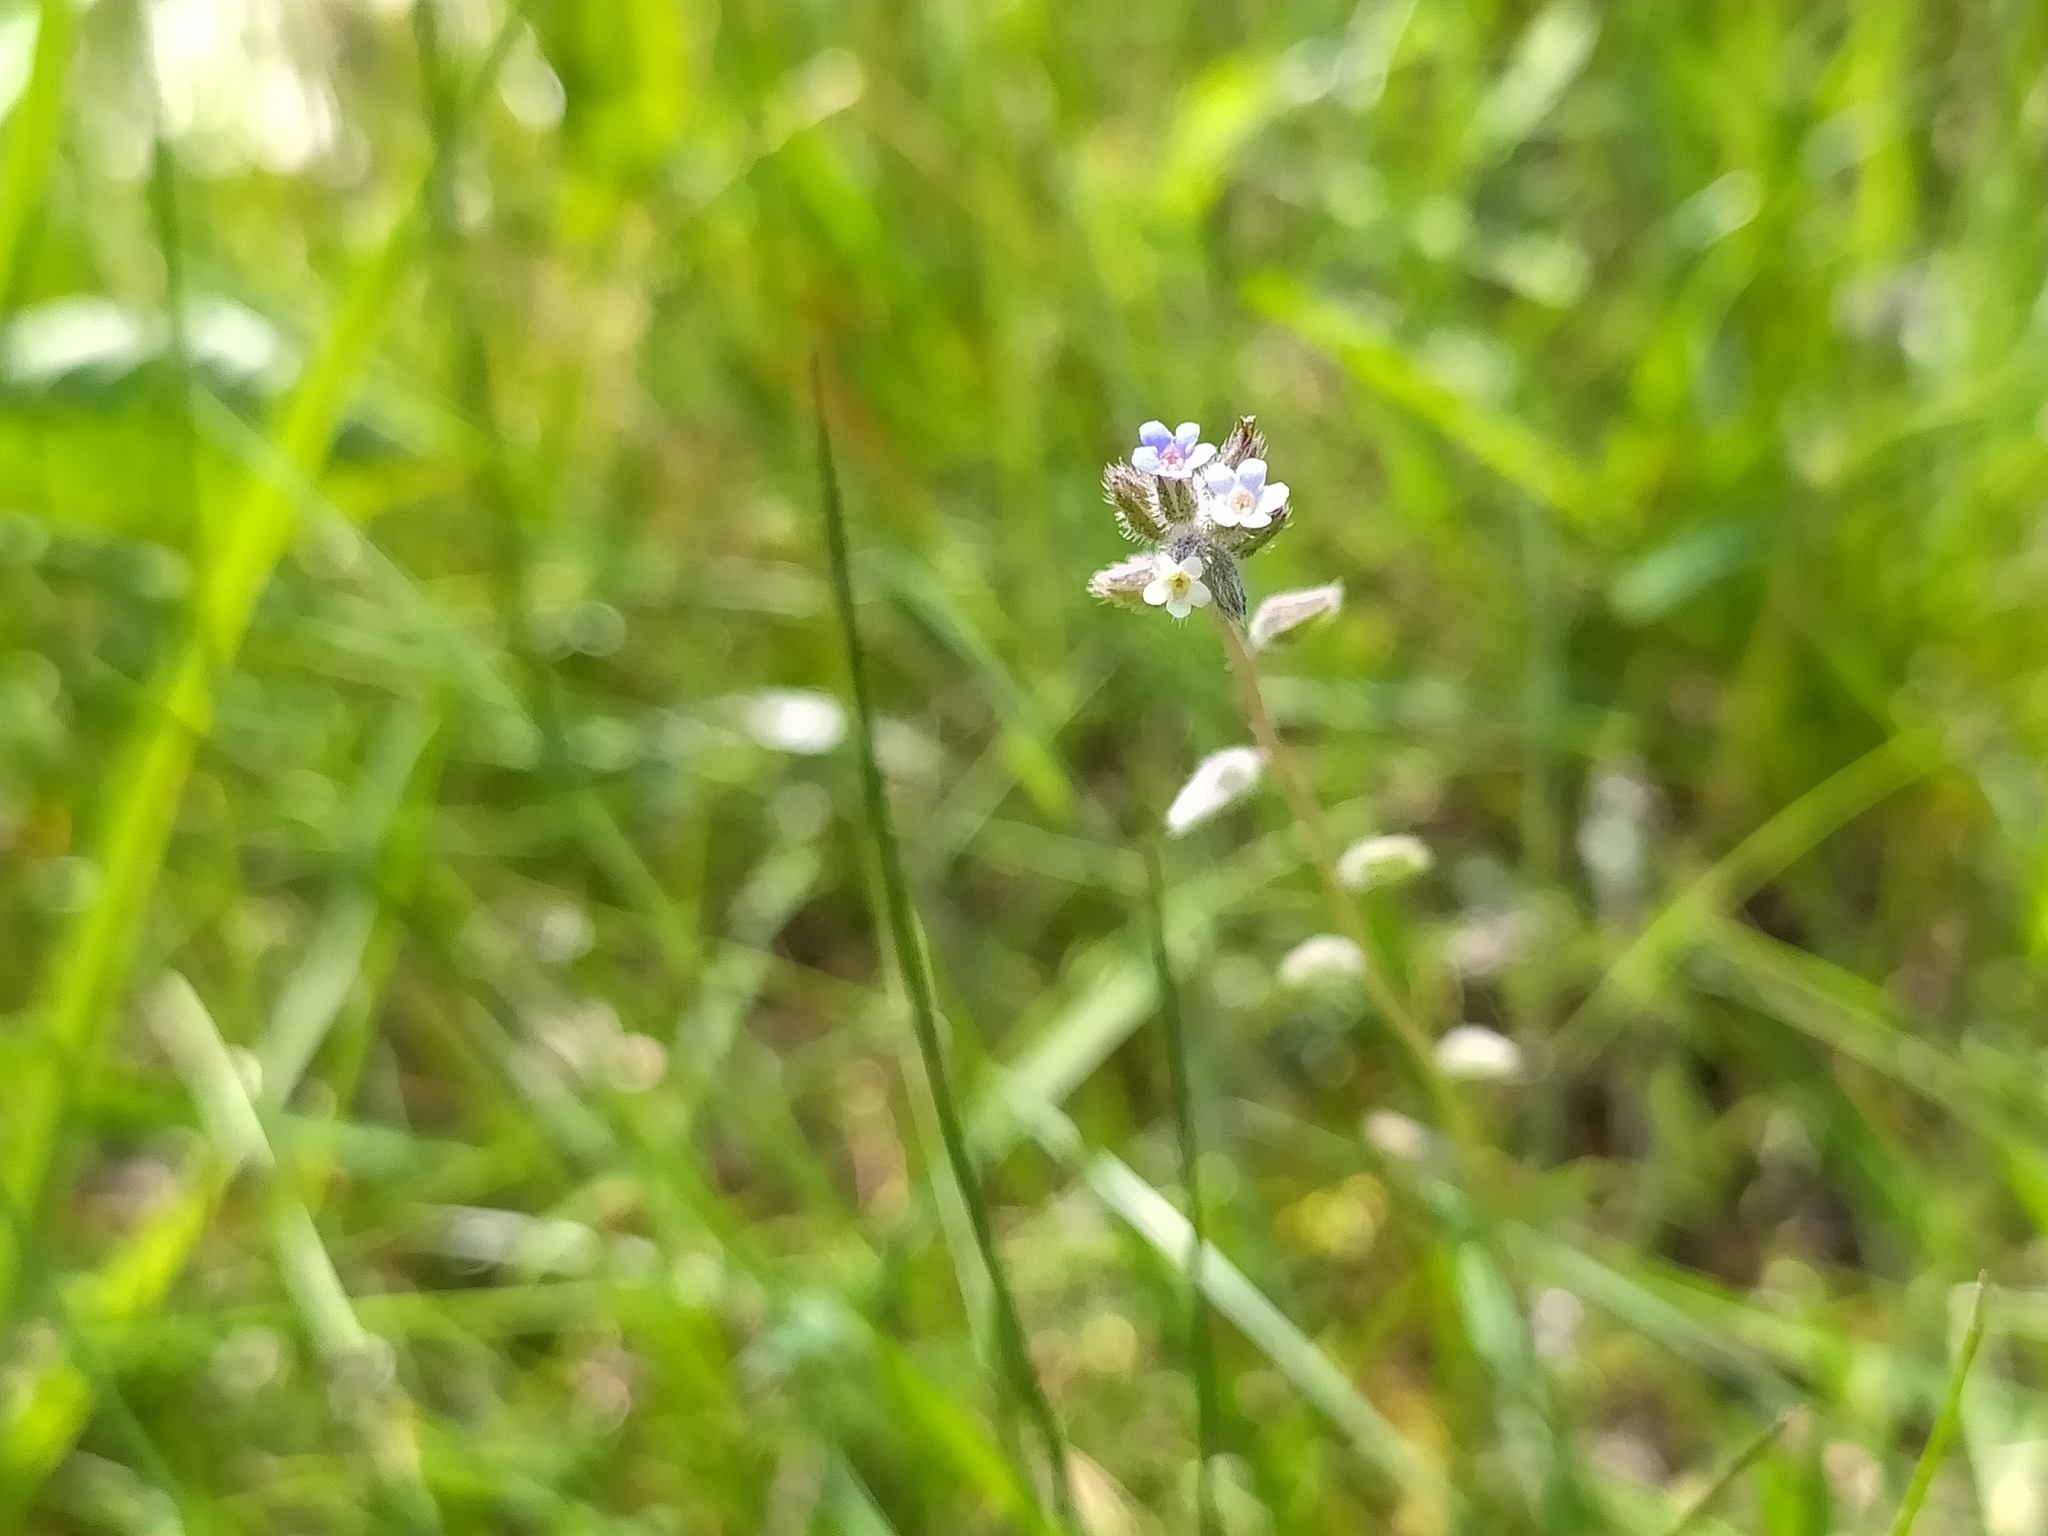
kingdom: Plantae
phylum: Tracheophyta
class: Magnoliopsida
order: Boraginales
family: Boraginaceae
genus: Myosotis
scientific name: Myosotis discolor
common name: Changing forget-me-not
